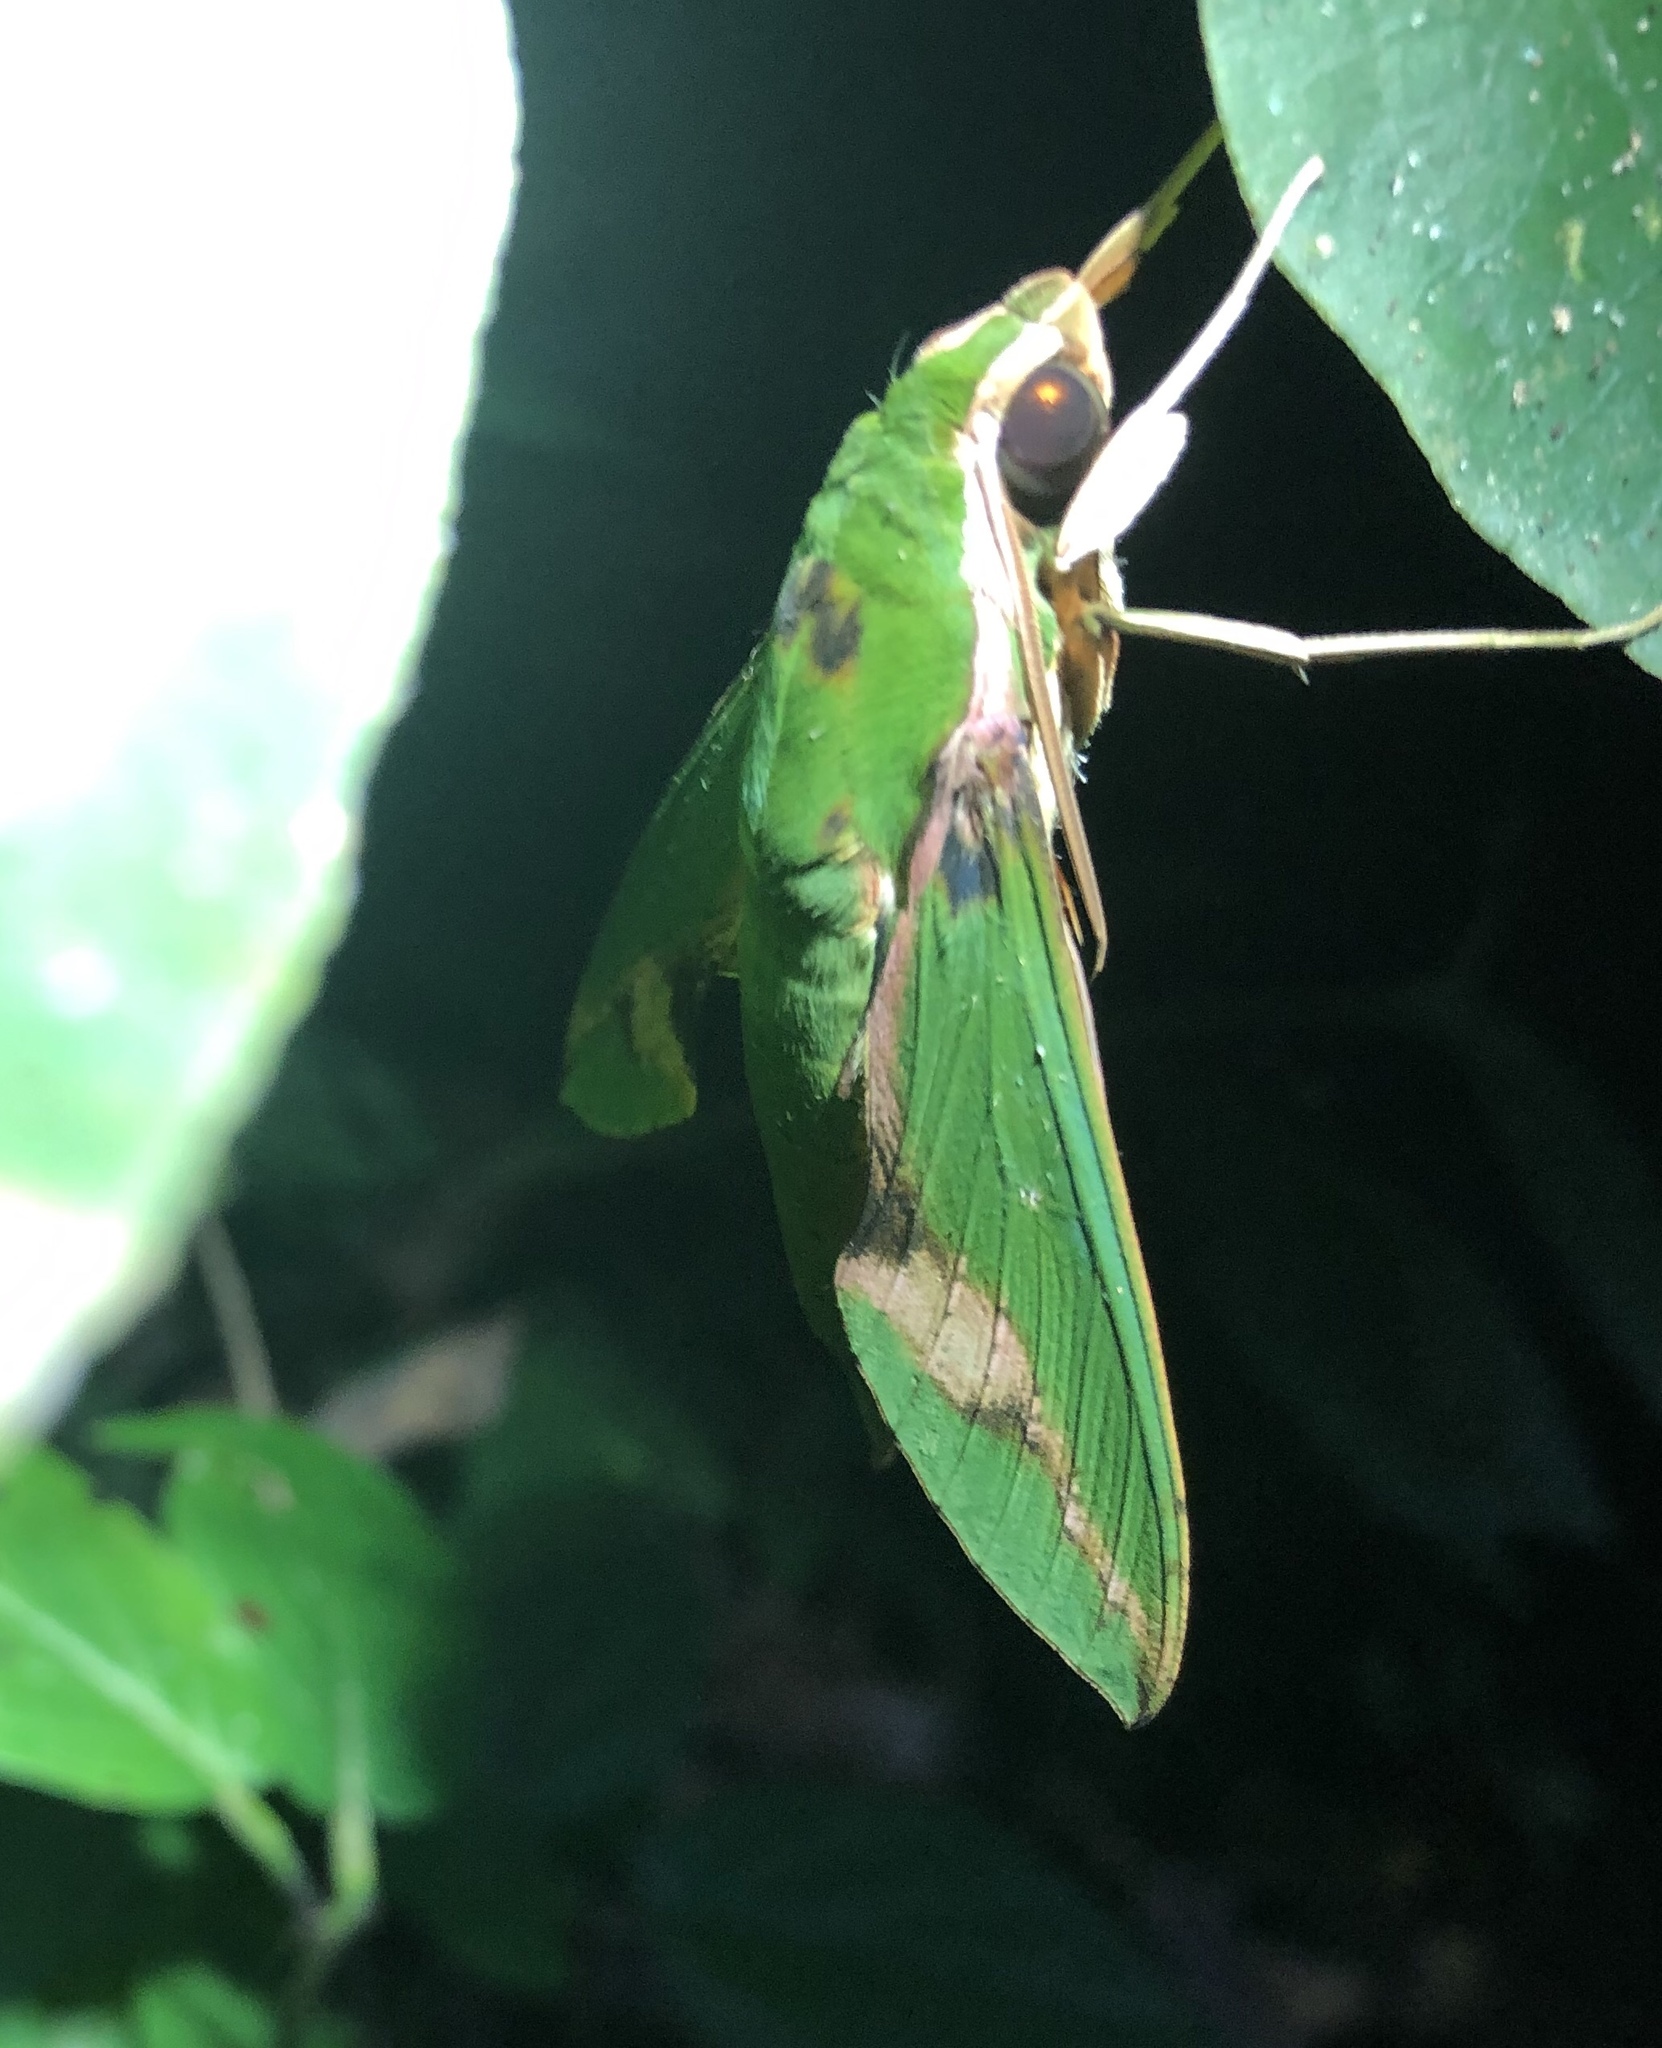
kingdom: Animalia
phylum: Arthropoda
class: Insecta
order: Lepidoptera
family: Sphingidae
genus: Xylophanes
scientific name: Xylophanes chiron
